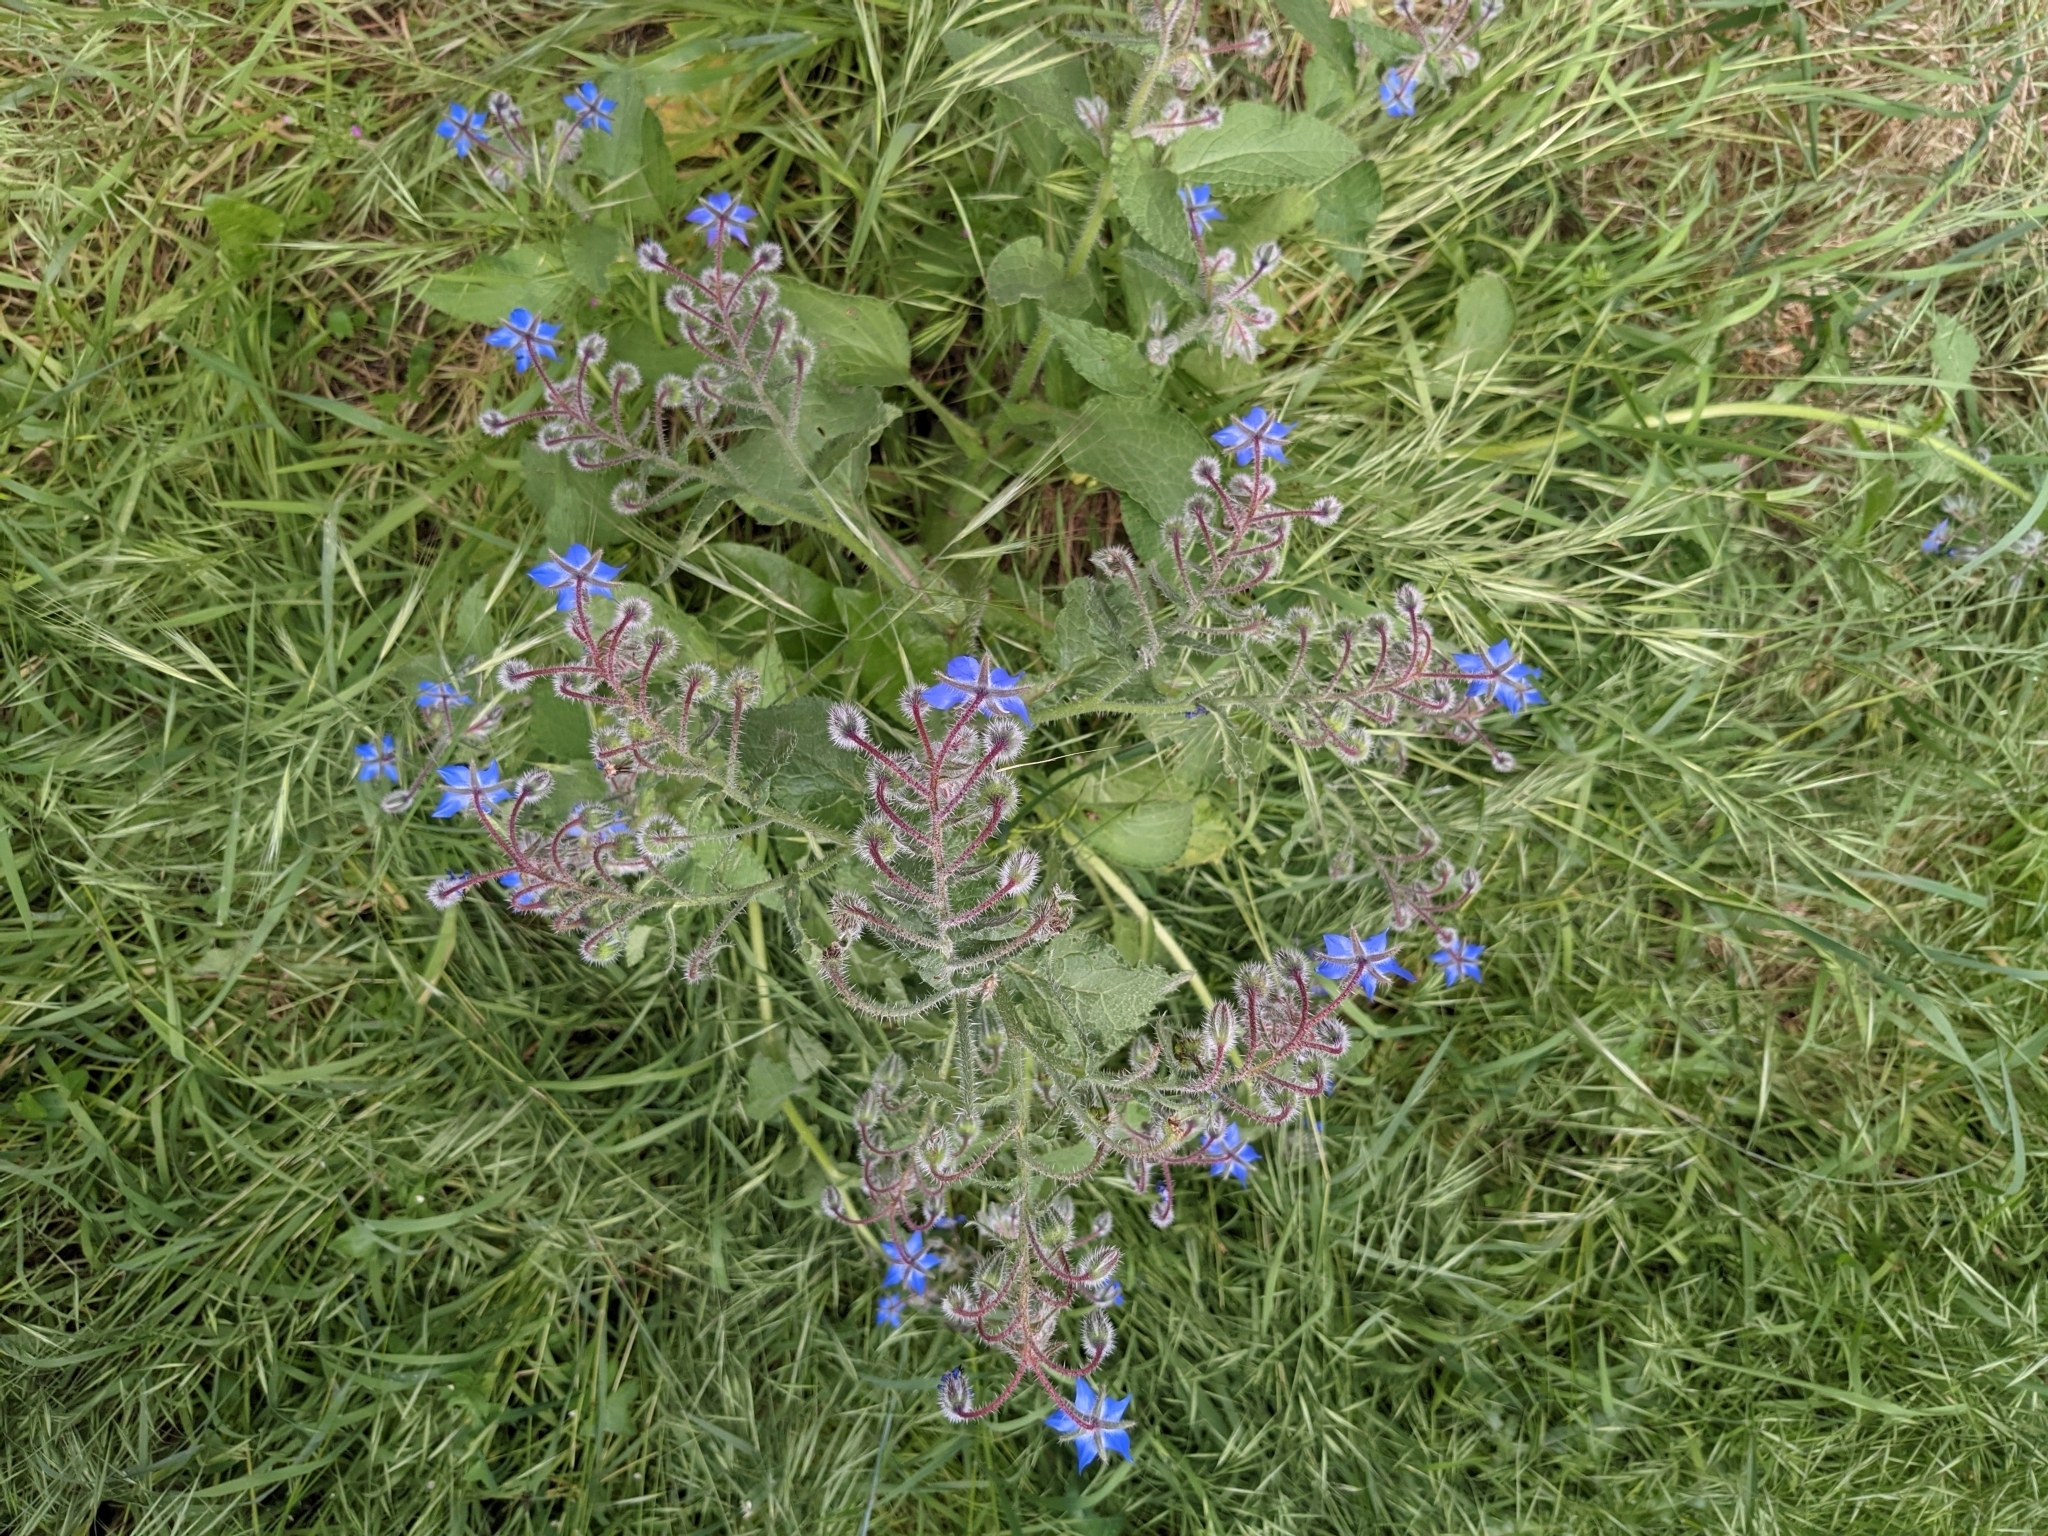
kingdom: Plantae
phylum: Tracheophyta
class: Magnoliopsida
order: Boraginales
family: Boraginaceae
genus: Borago
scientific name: Borago officinalis
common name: Borage
